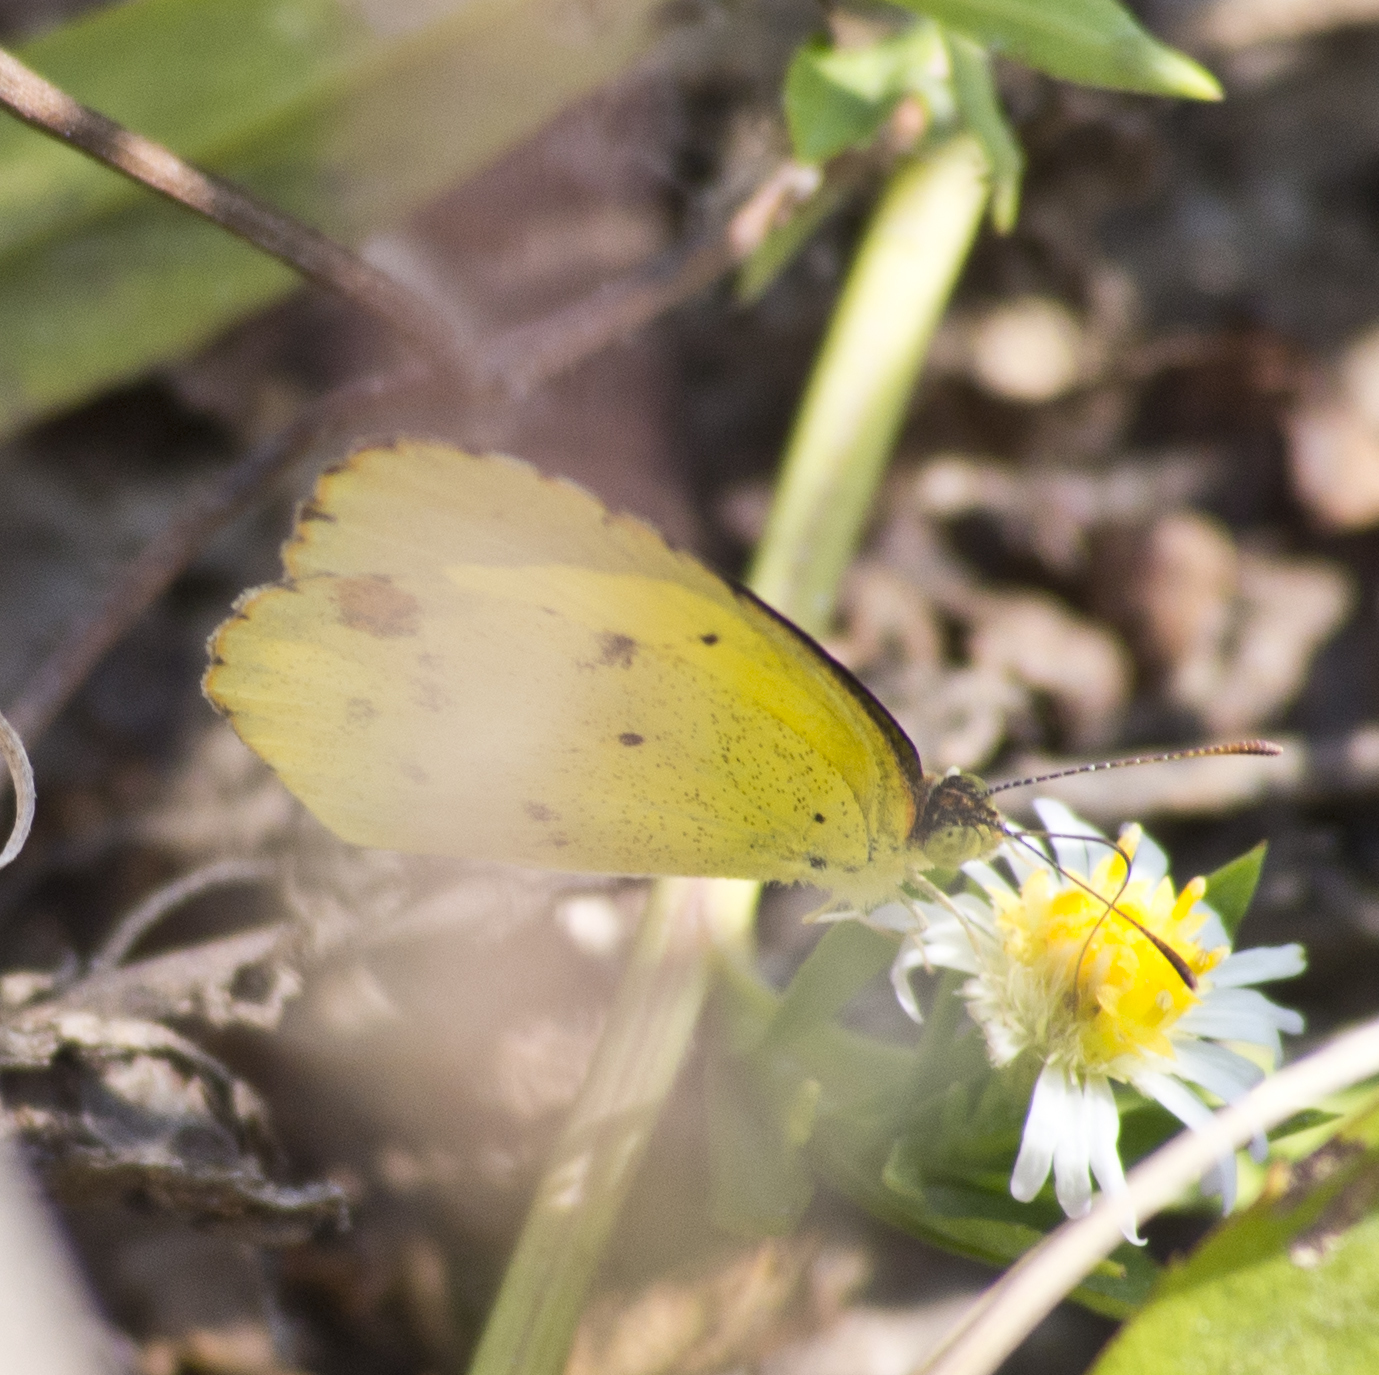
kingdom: Animalia
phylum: Arthropoda
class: Insecta
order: Lepidoptera
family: Pieridae
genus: Pyrisitia
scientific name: Pyrisitia lisa
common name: Little yellow
